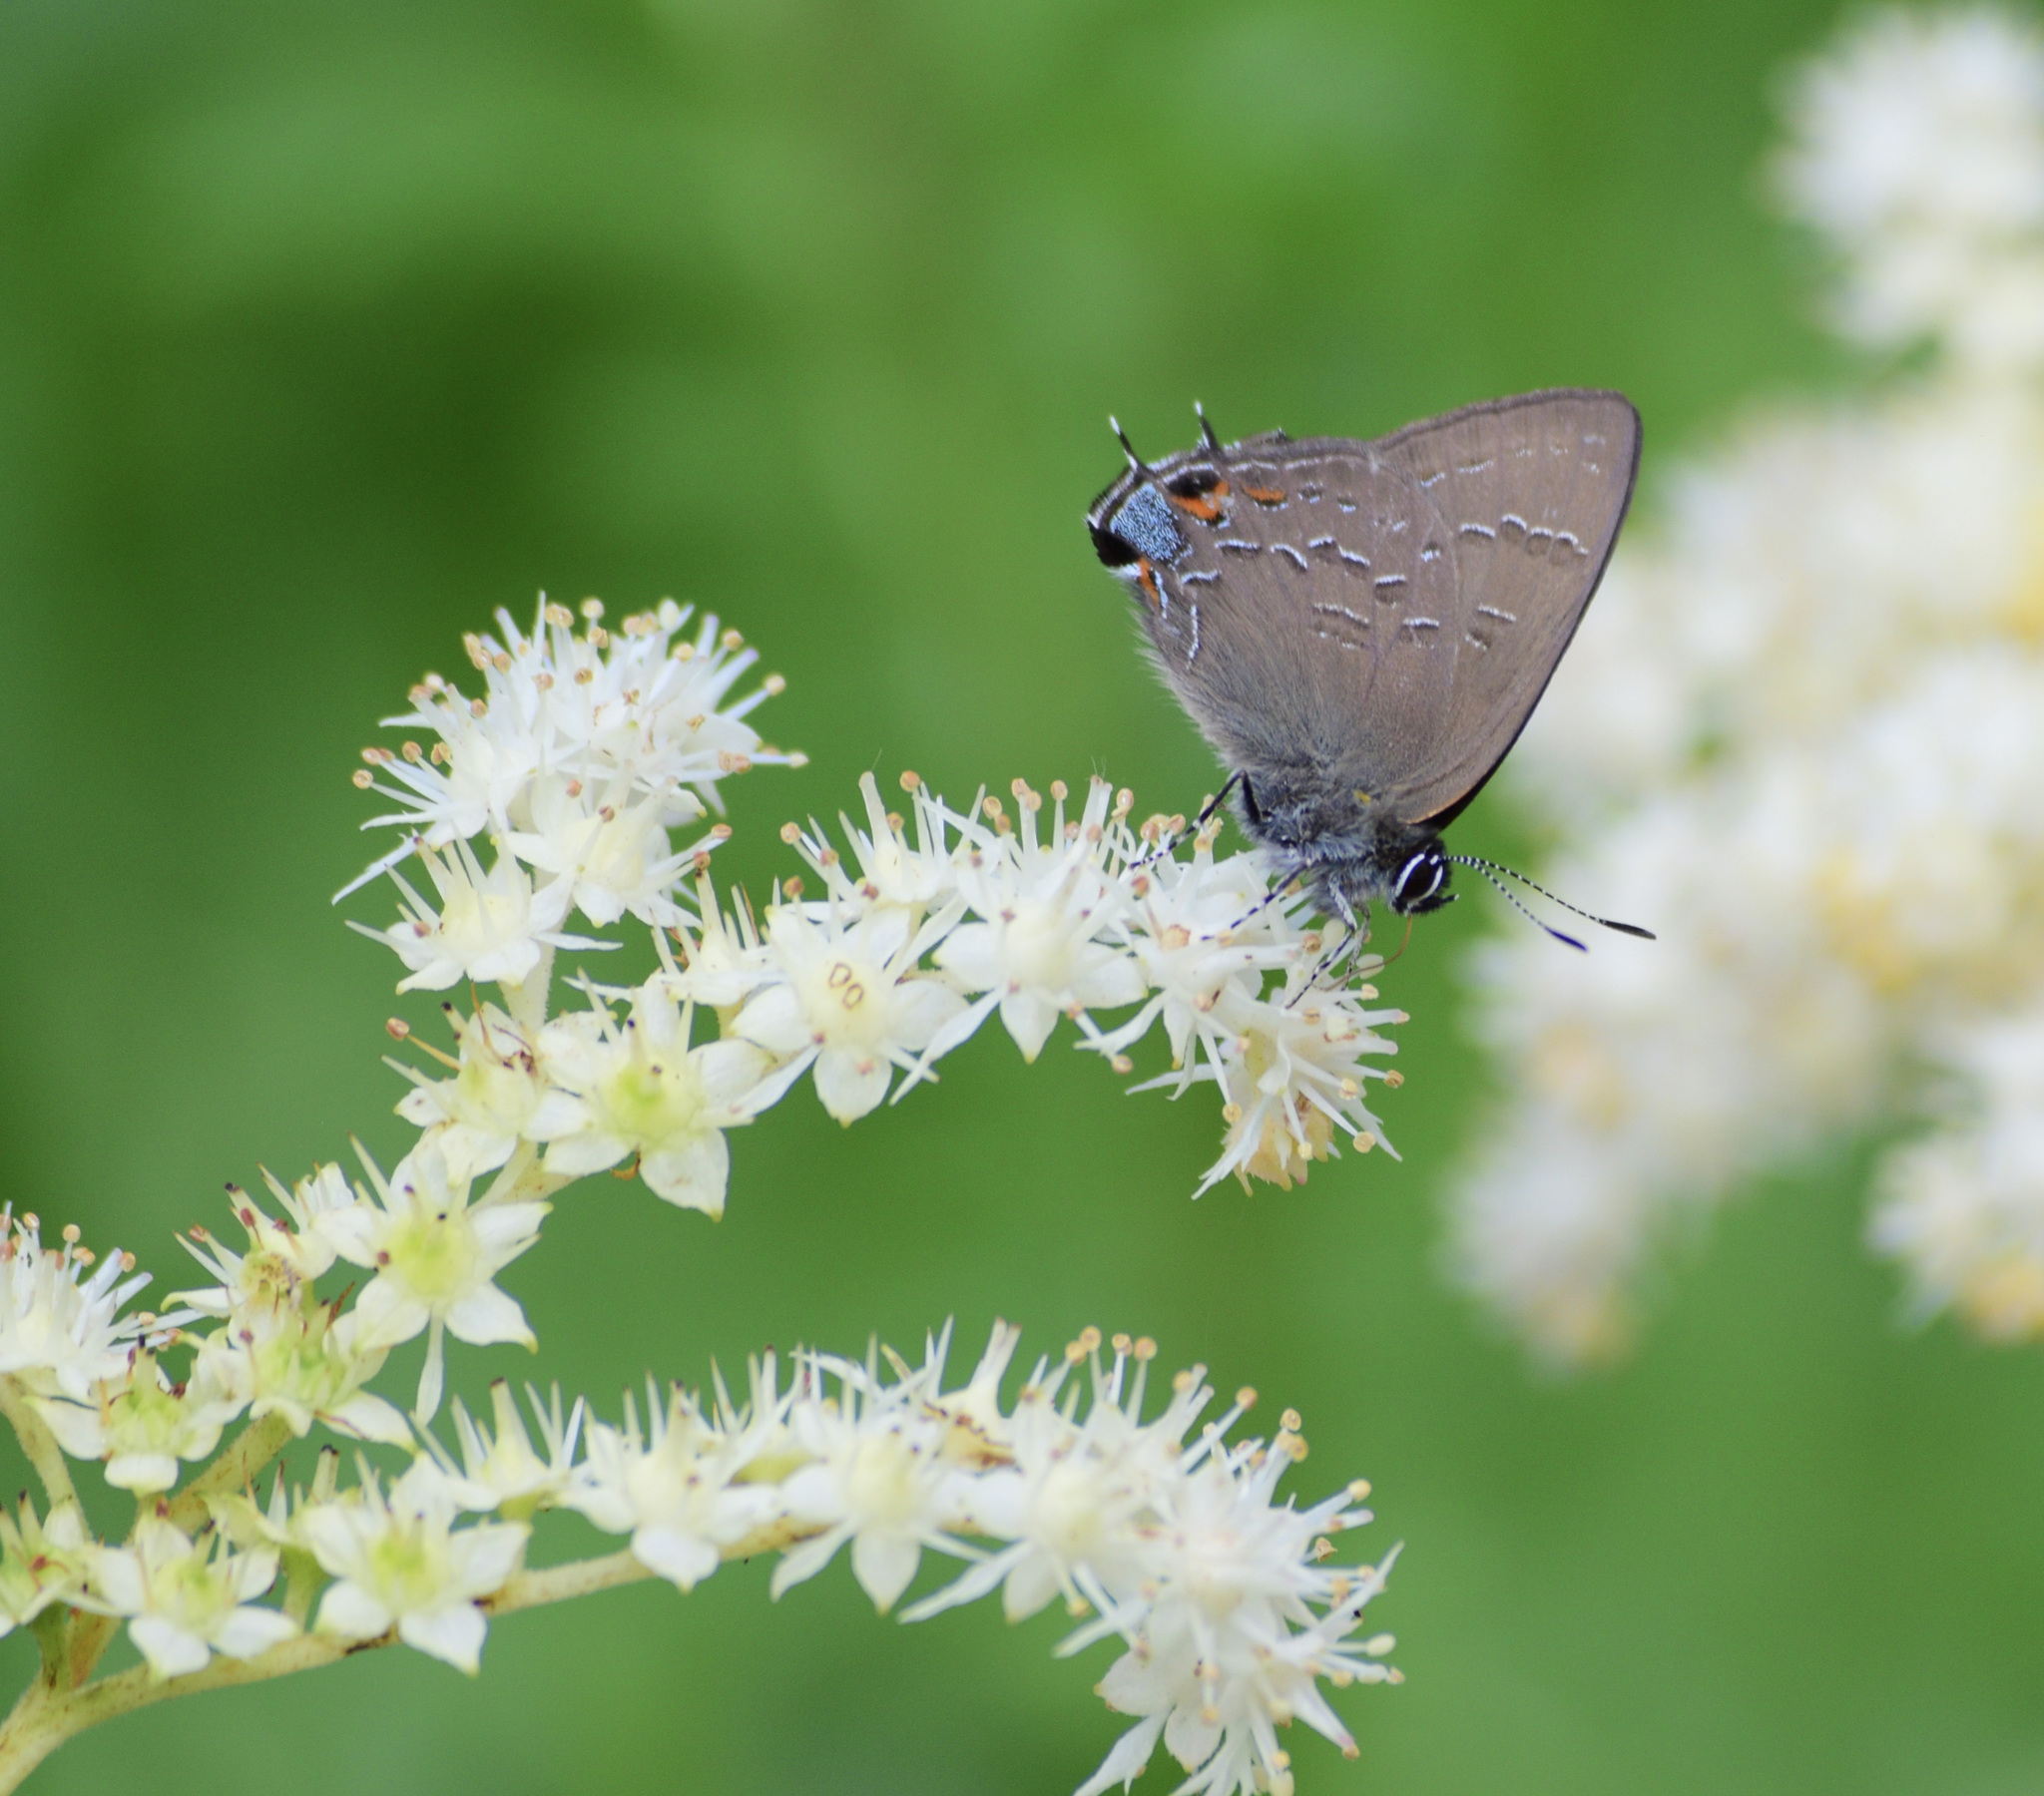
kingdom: Animalia
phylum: Arthropoda
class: Insecta
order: Lepidoptera
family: Lycaenidae
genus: Satyrium
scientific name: Satyrium calanus
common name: Banded hairstreak
